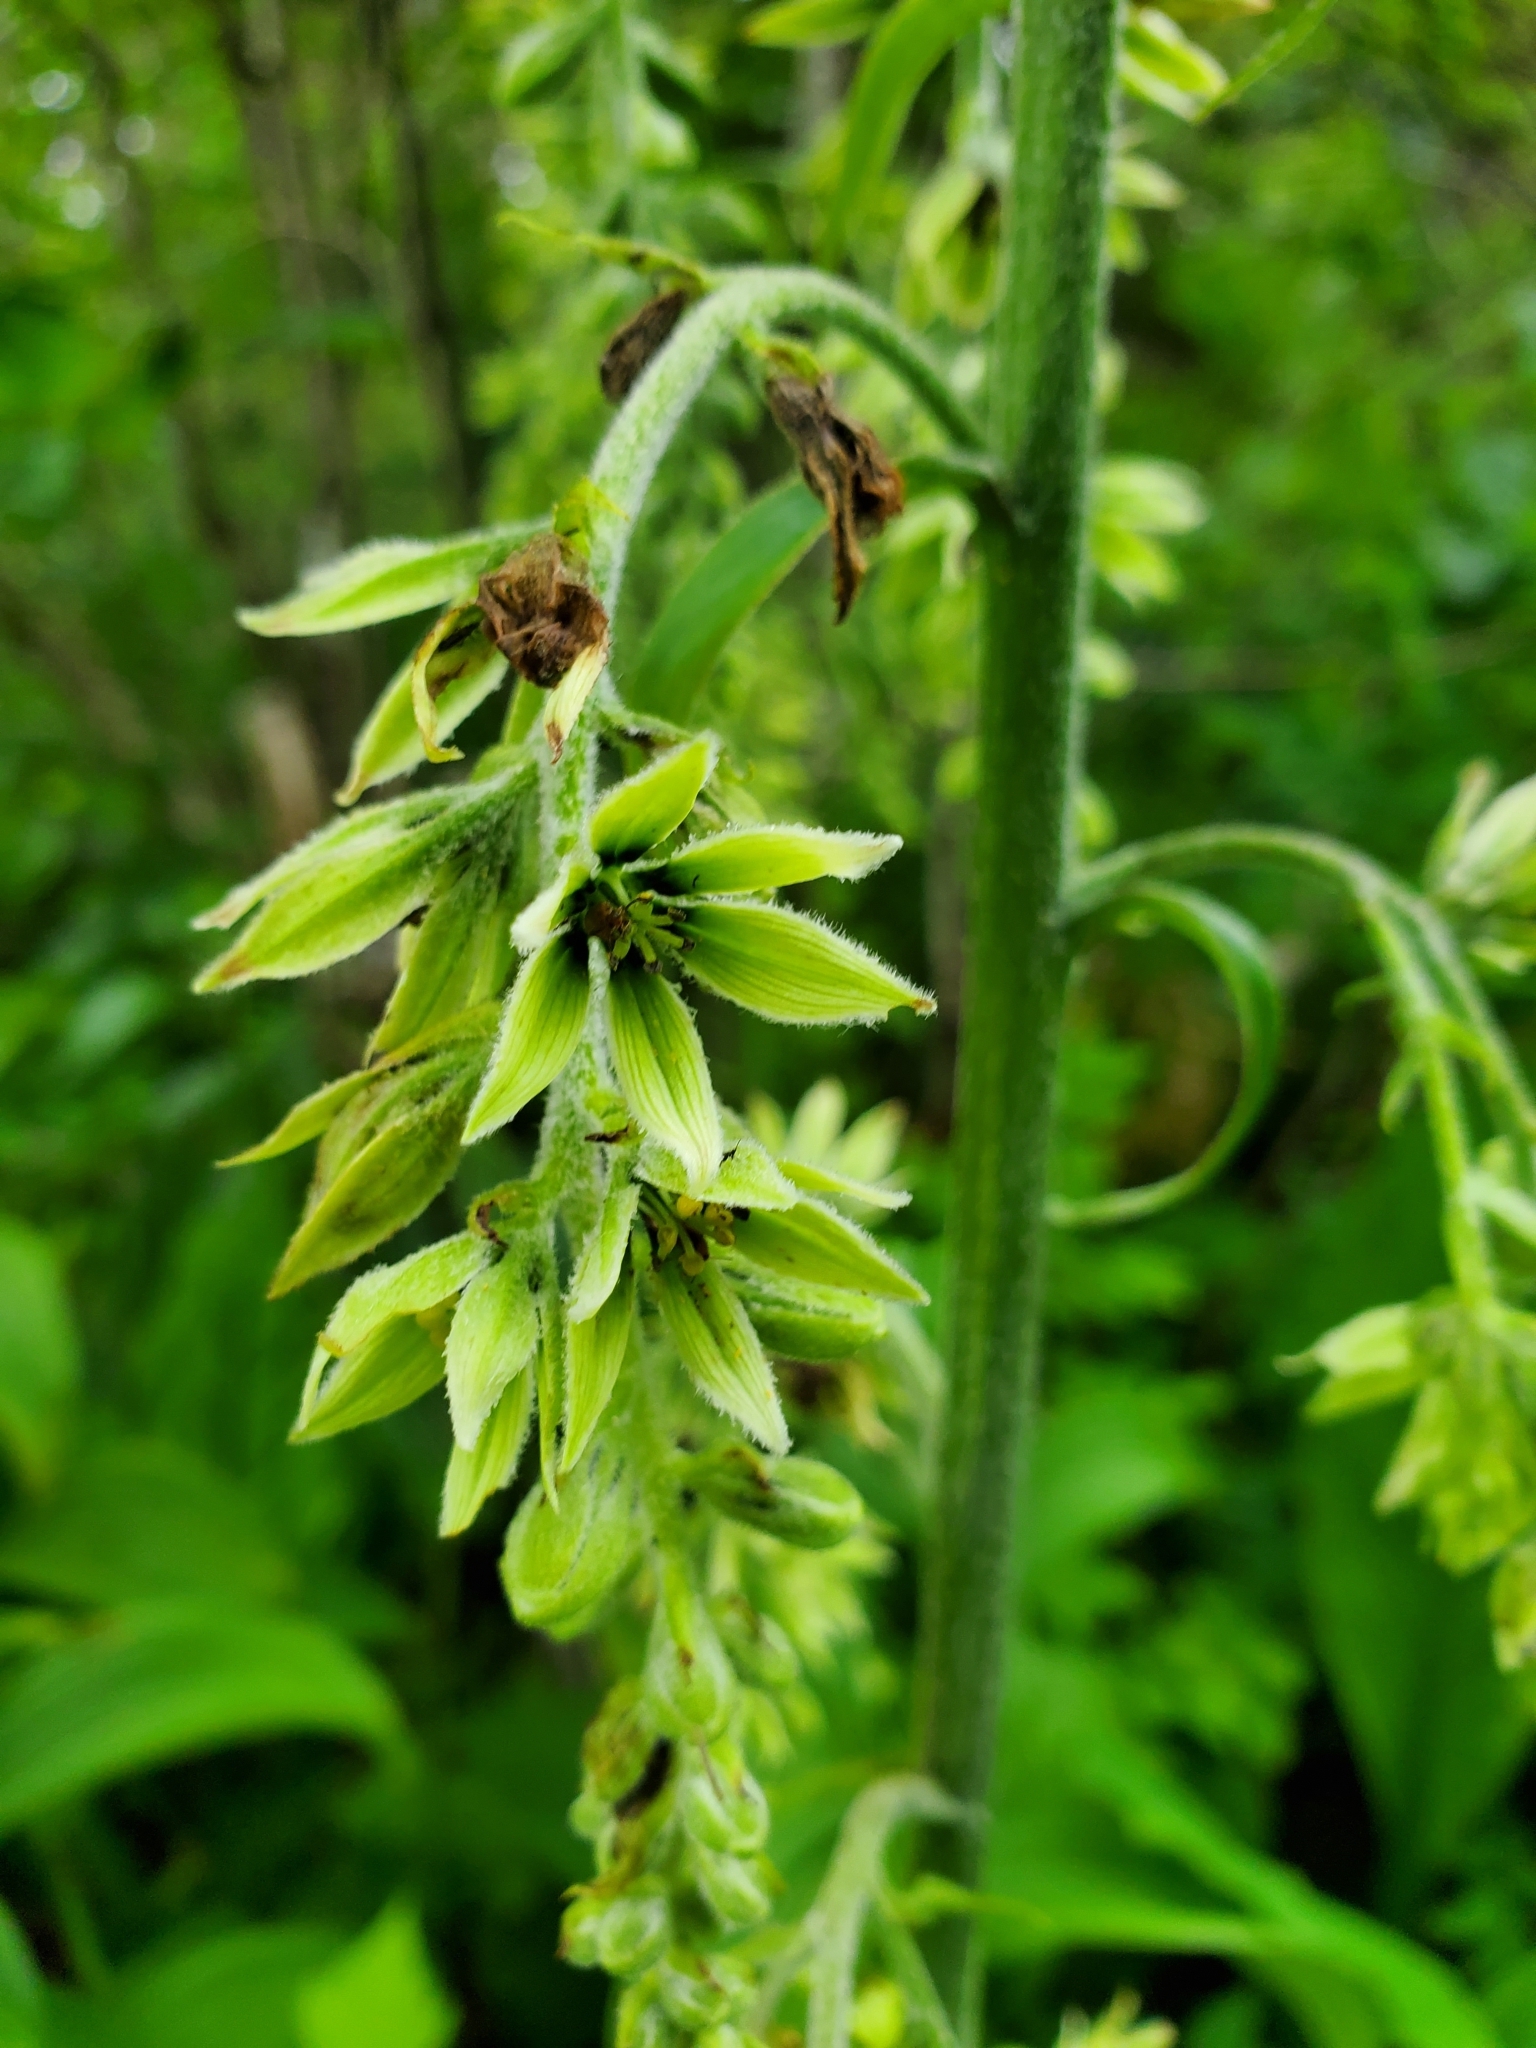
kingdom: Plantae
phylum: Tracheophyta
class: Liliopsida
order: Liliales
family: Melanthiaceae
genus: Veratrum
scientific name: Veratrum viride
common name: American false hellebore
